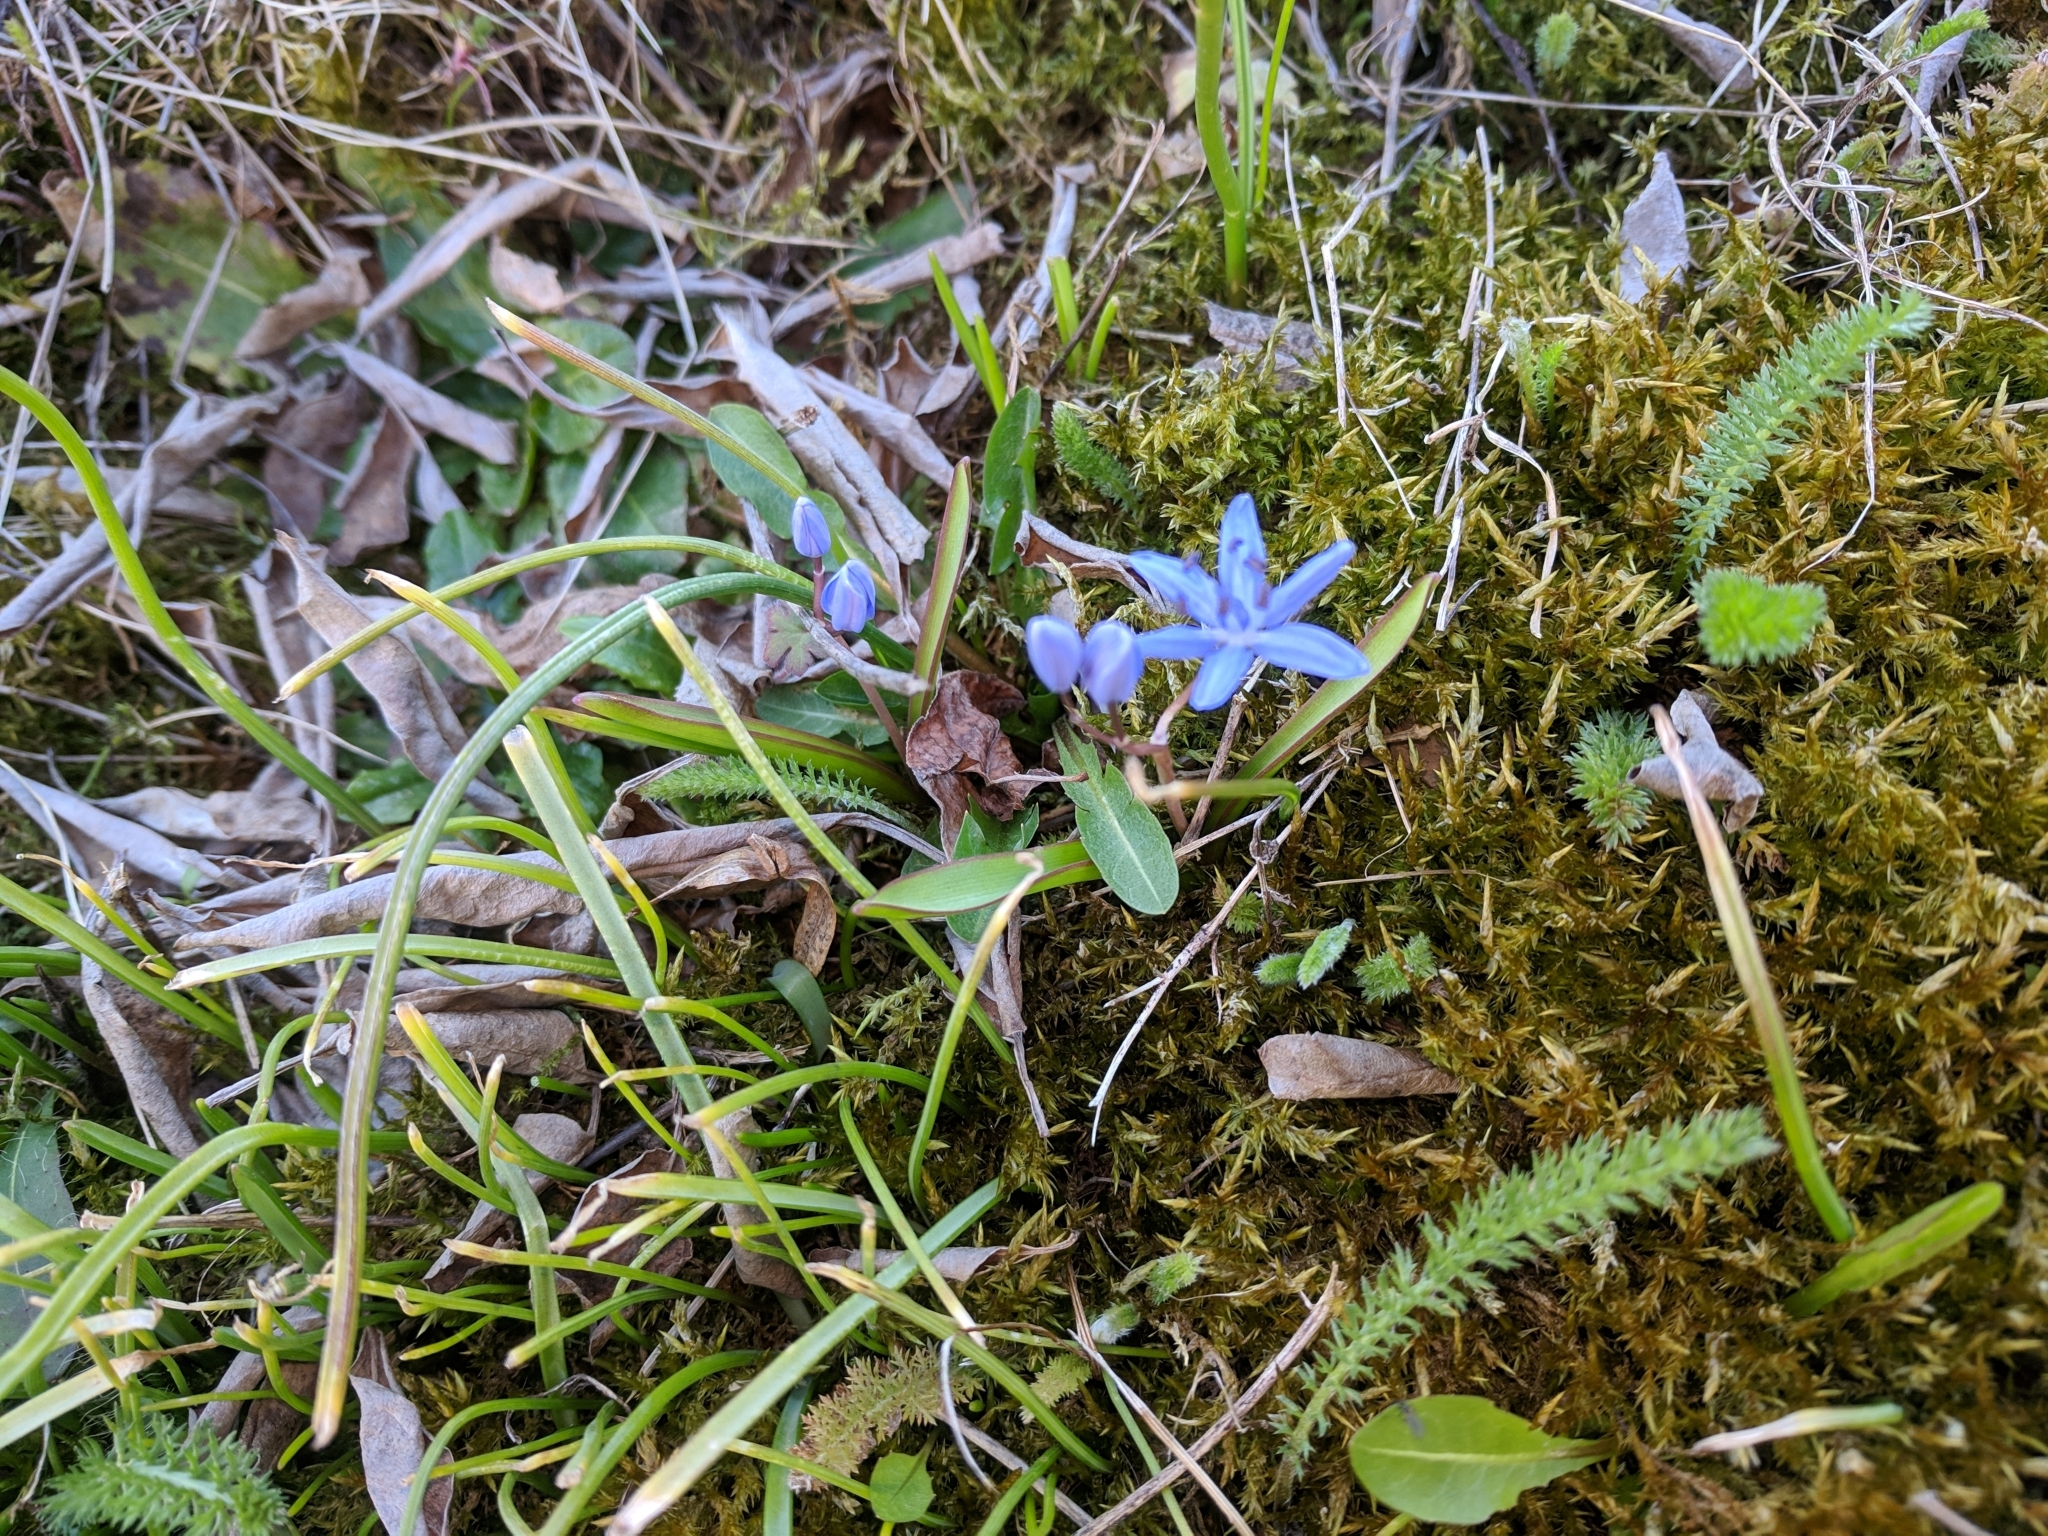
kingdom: Plantae
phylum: Tracheophyta
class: Liliopsida
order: Asparagales
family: Asparagaceae
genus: Scilla
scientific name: Scilla bifolia
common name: Alpine squill
